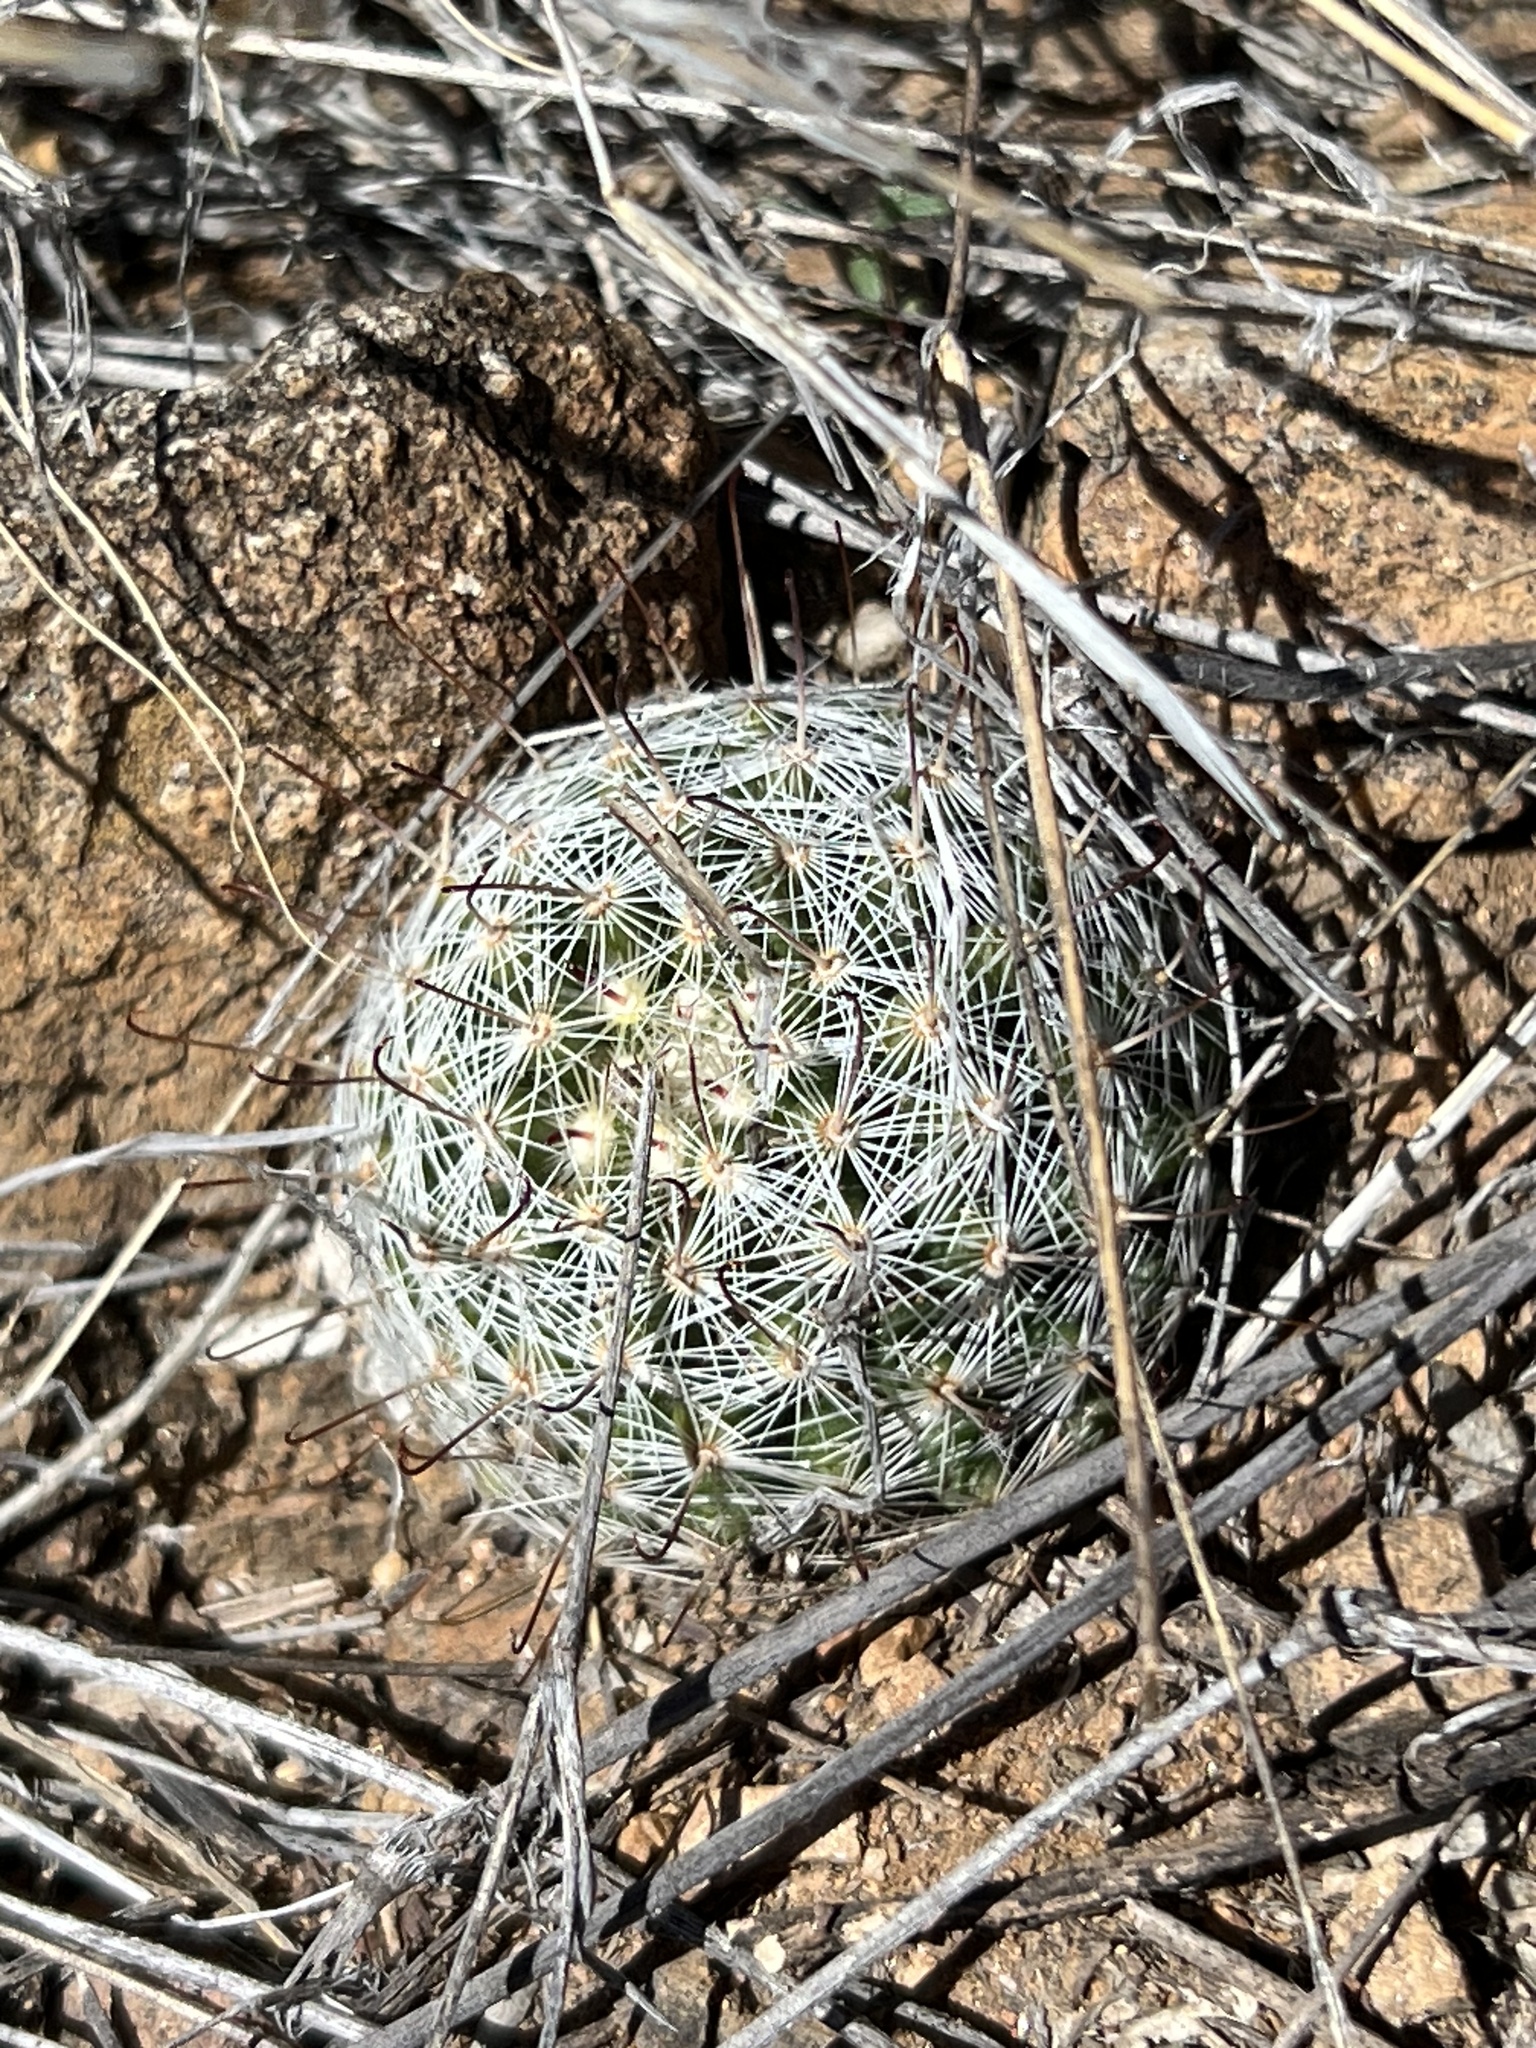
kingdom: Plantae
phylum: Tracheophyta
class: Magnoliopsida
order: Caryophyllales
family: Cactaceae
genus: Cochemiea
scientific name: Cochemiea grahamii
